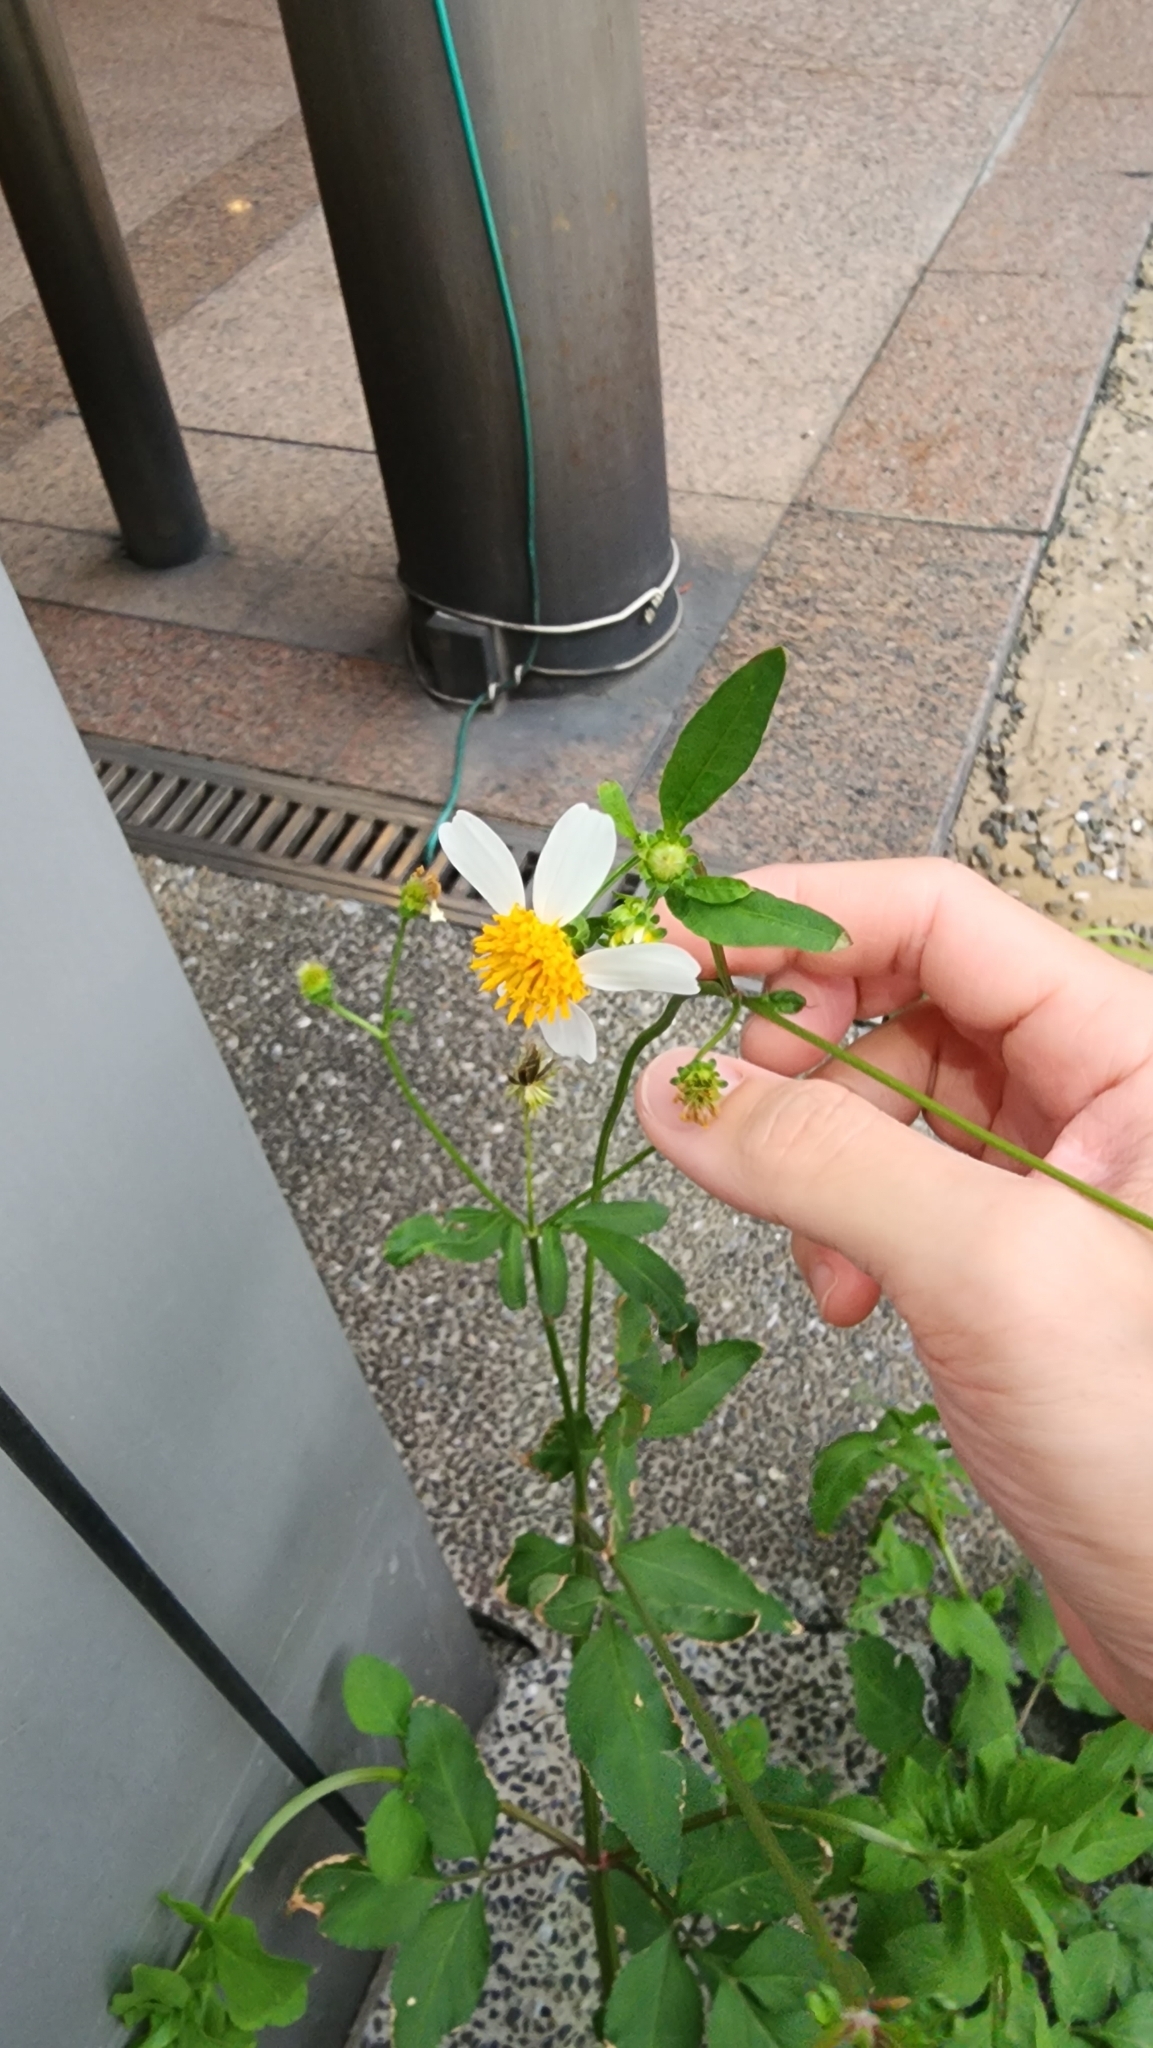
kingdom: Plantae
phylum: Tracheophyta
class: Magnoliopsida
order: Asterales
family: Asteraceae
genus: Bidens
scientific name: Bidens alba
